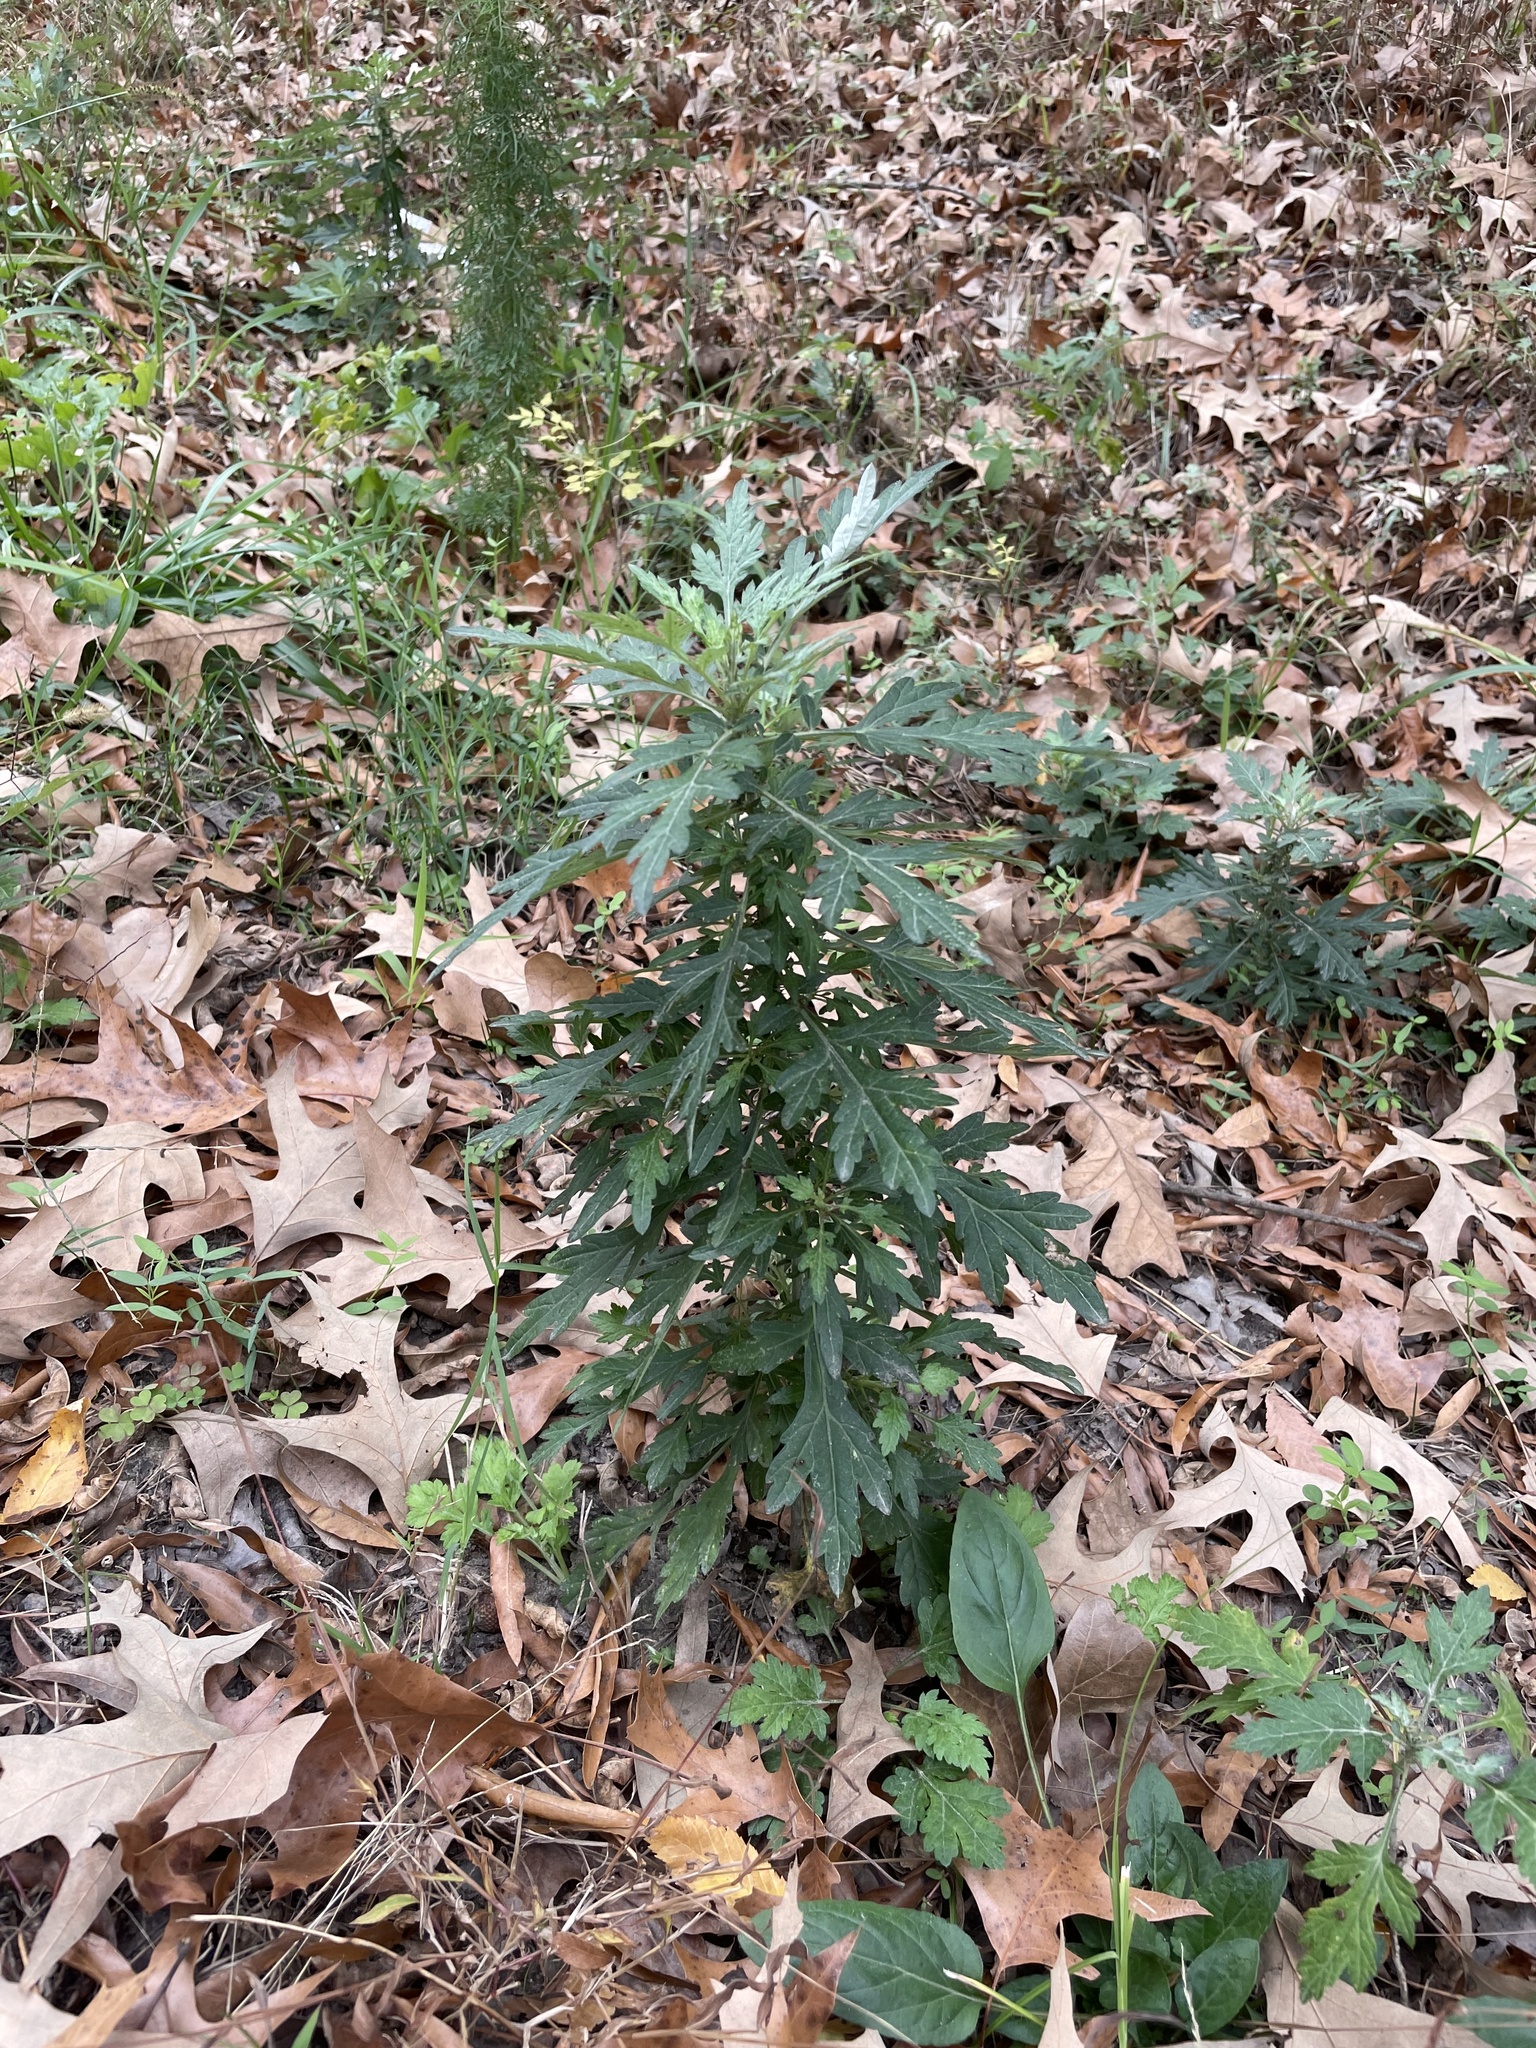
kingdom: Plantae
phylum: Tracheophyta
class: Magnoliopsida
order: Asterales
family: Asteraceae
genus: Artemisia
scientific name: Artemisia vulgaris
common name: Mugwort
